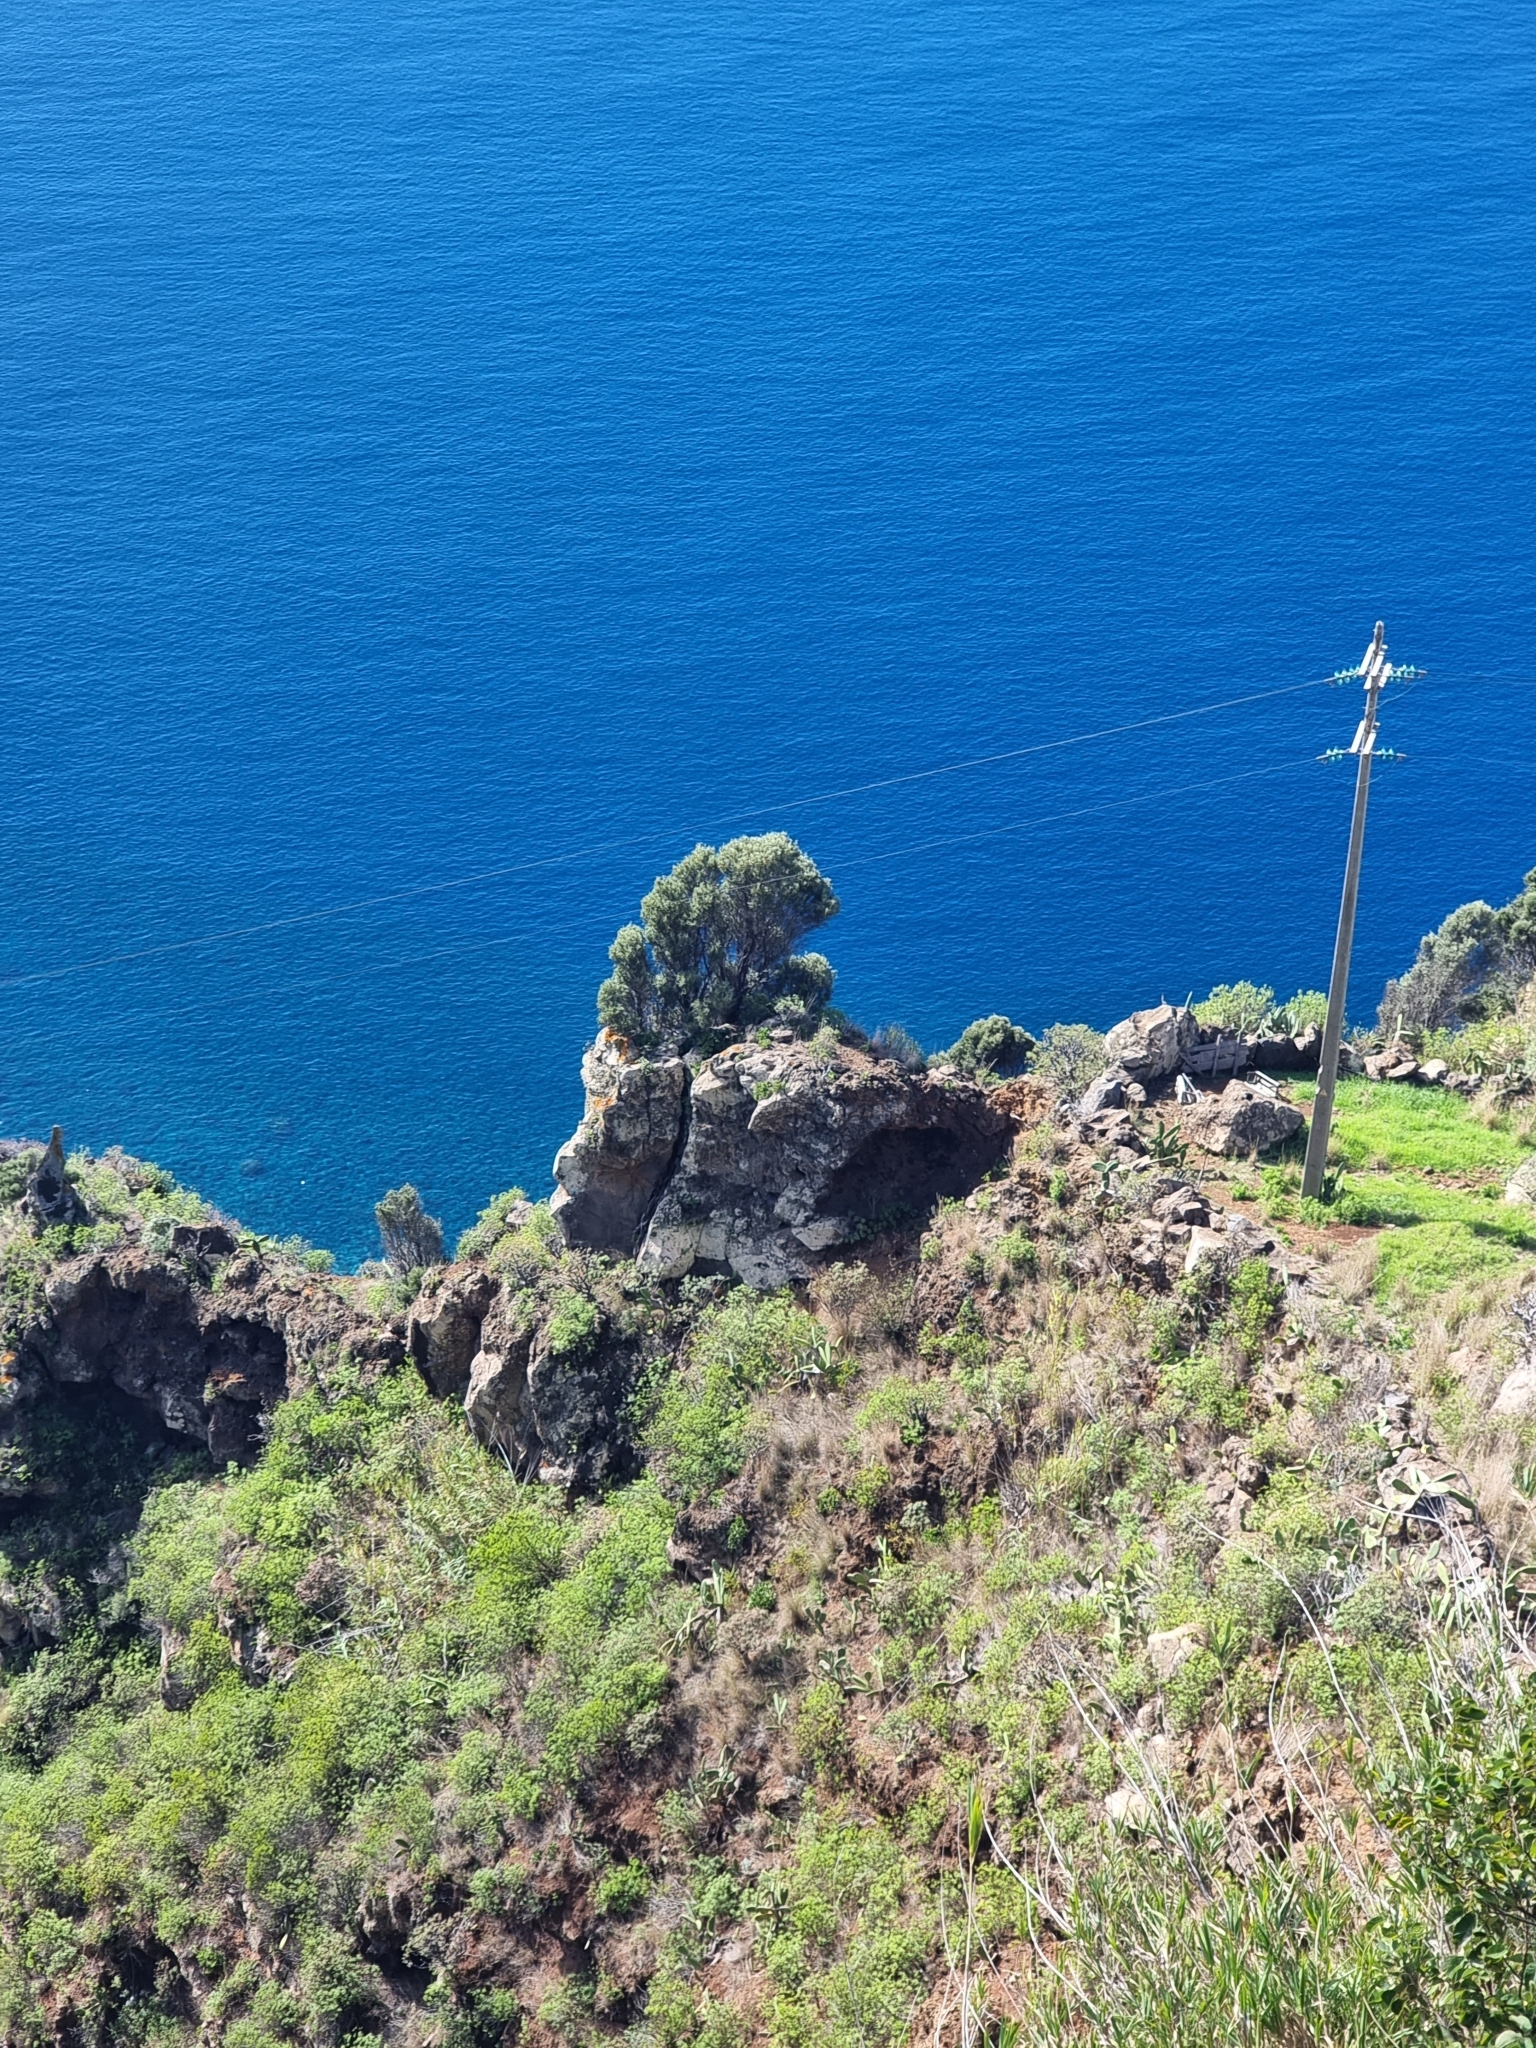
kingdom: Plantae
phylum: Tracheophyta
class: Magnoliopsida
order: Lamiales
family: Oleaceae
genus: Olea
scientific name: Olea europaea
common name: Olive
